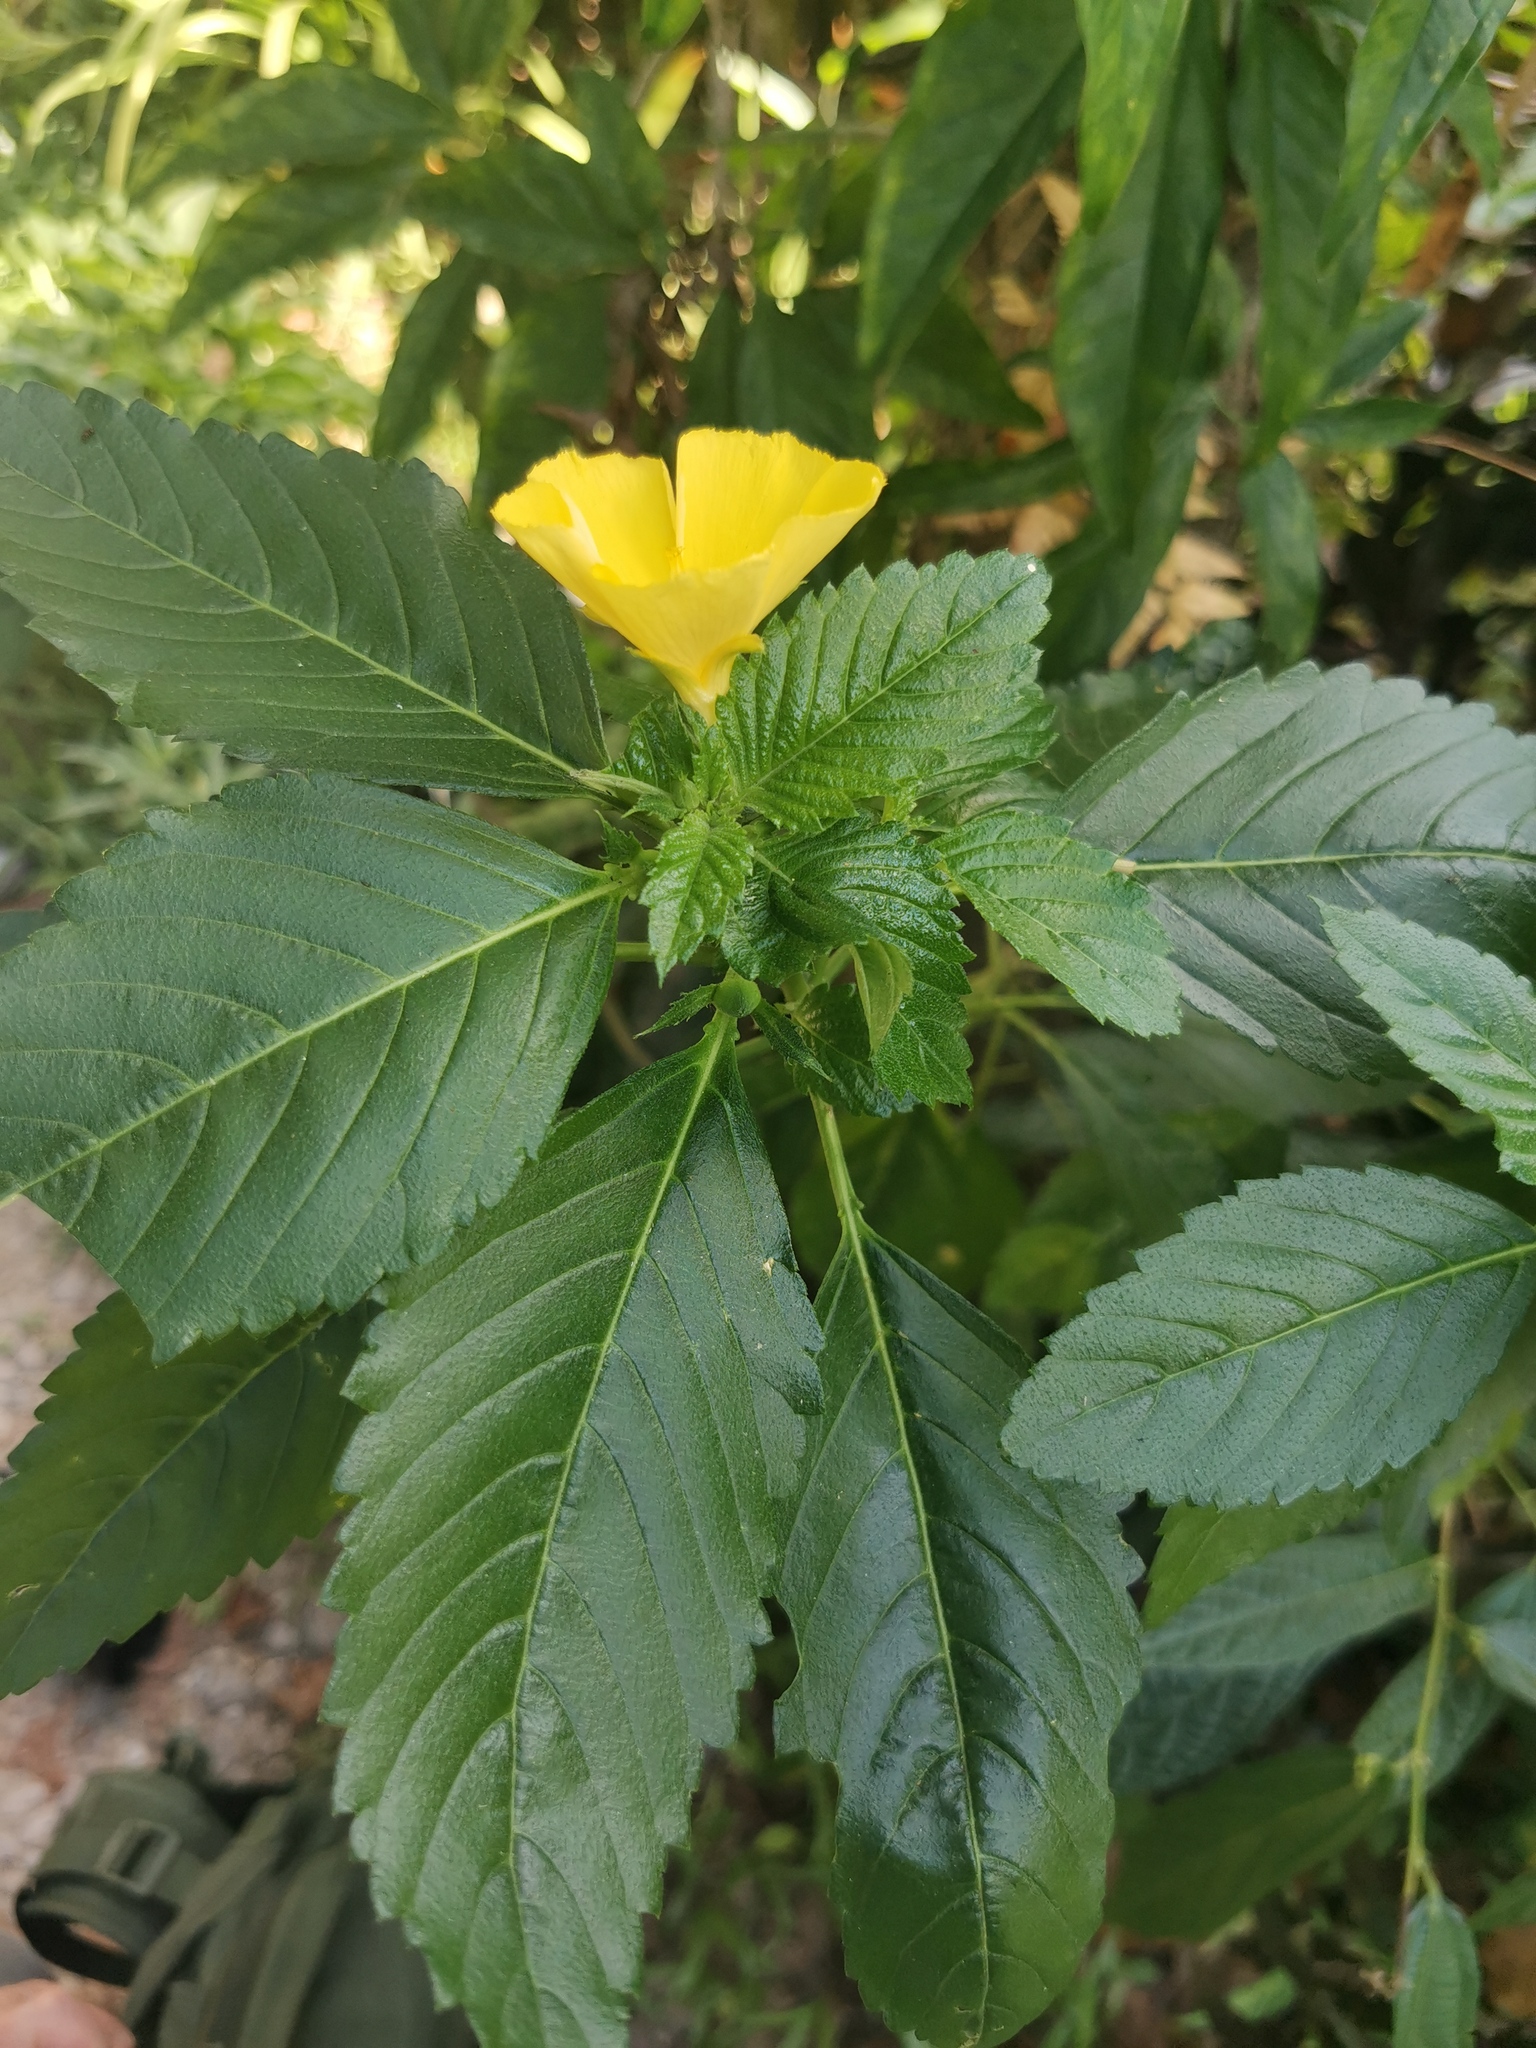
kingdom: Plantae
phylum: Tracheophyta
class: Magnoliopsida
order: Malpighiales
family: Turneraceae
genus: Turnera
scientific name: Turnera ulmifolia
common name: Ramgoat dashalong
